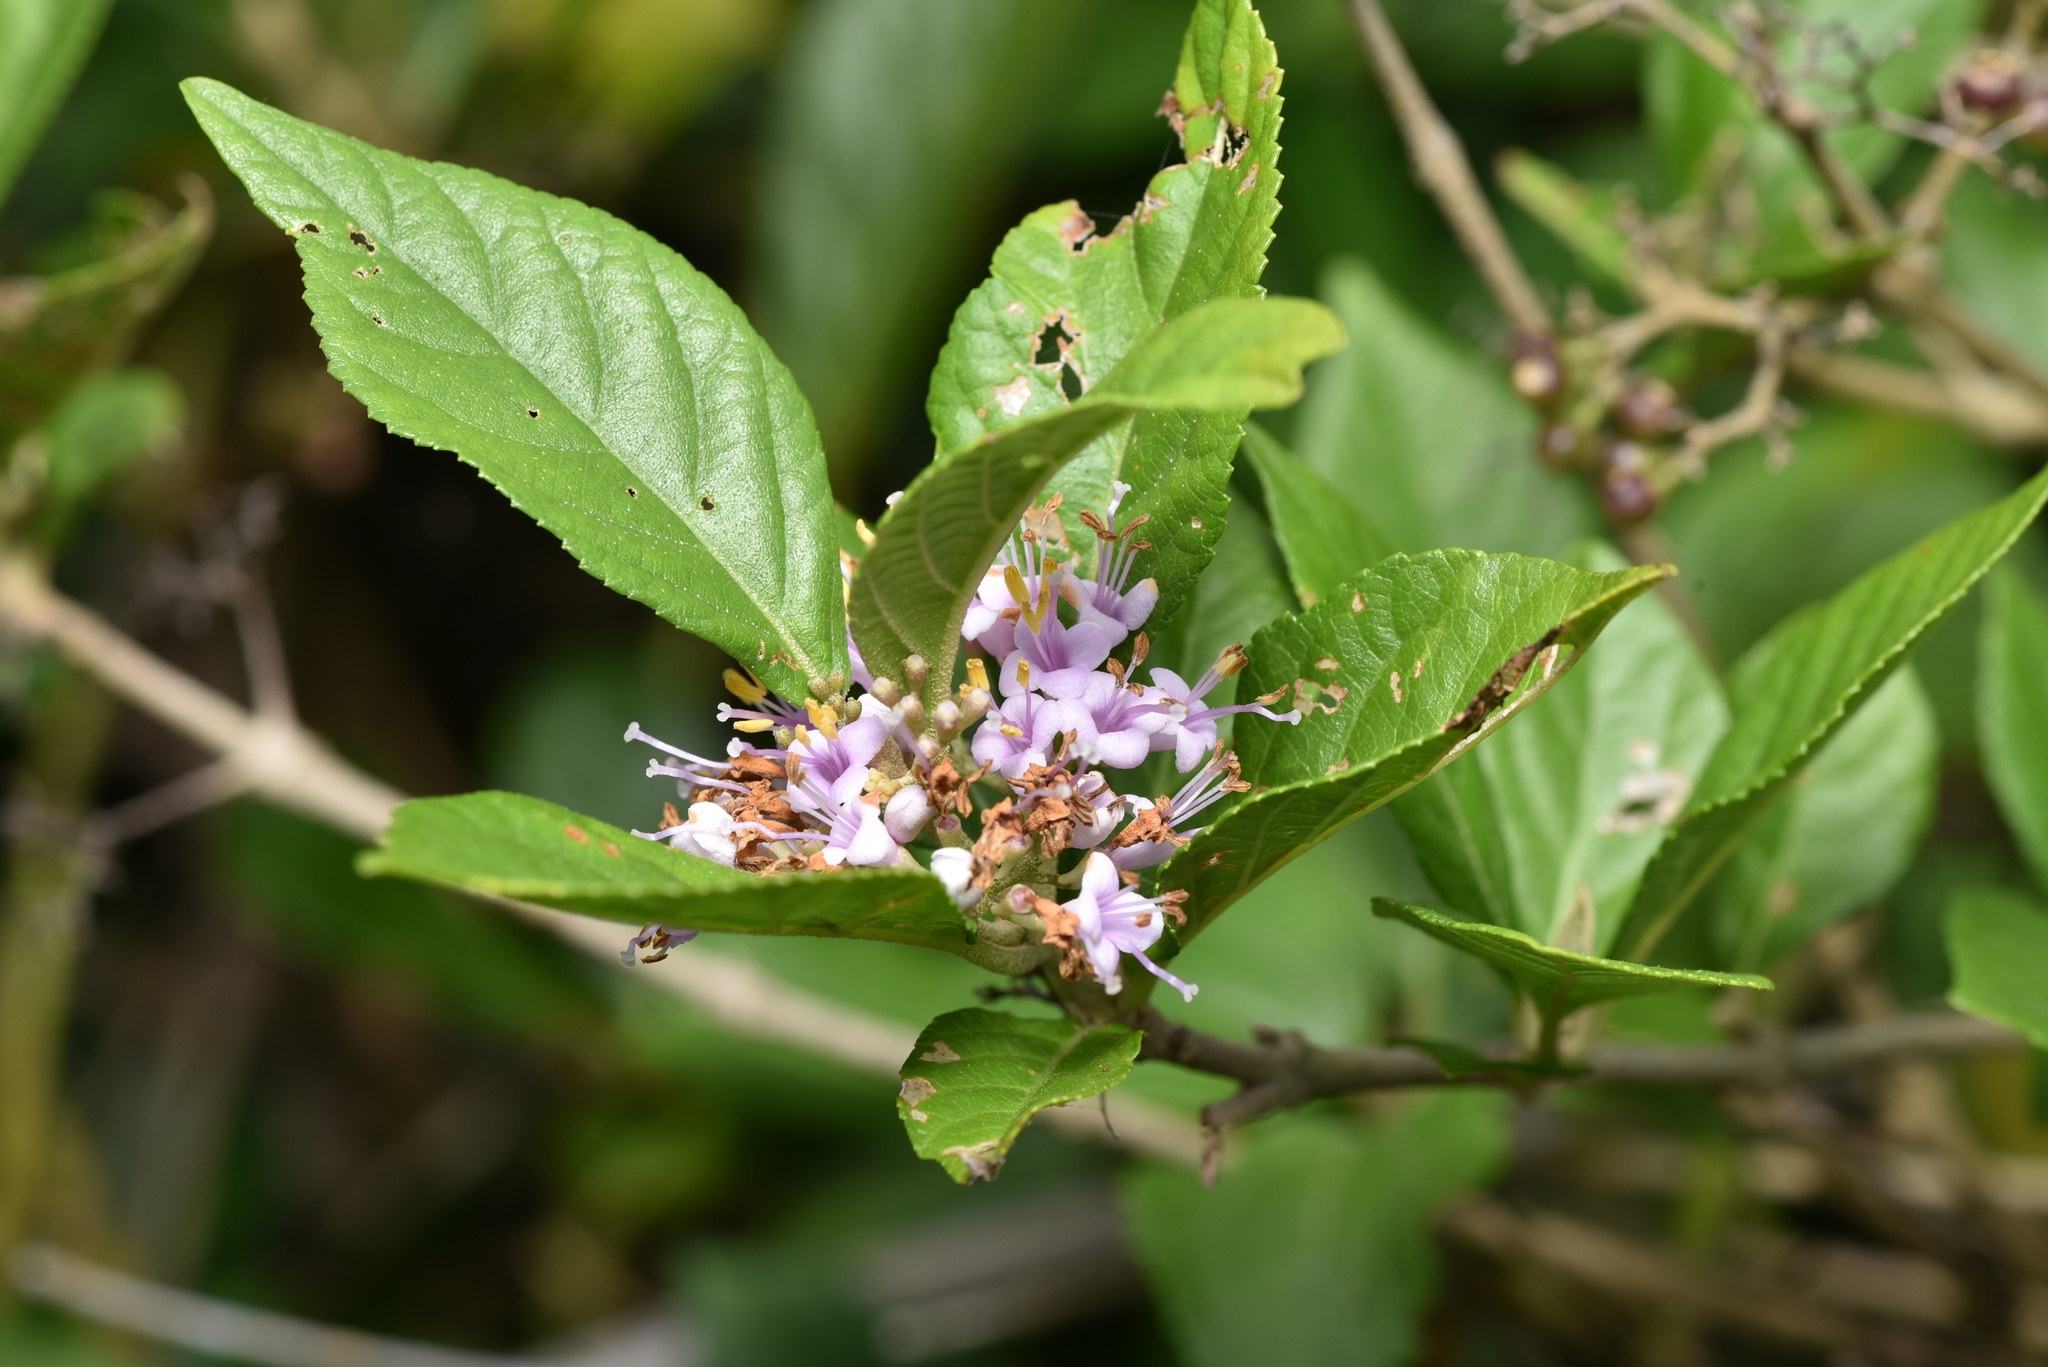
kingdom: Plantae
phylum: Tracheophyta
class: Magnoliopsida
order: Lamiales
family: Lamiaceae
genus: Callicarpa
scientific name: Callicarpa japonica
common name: Japanese beauty-berry
